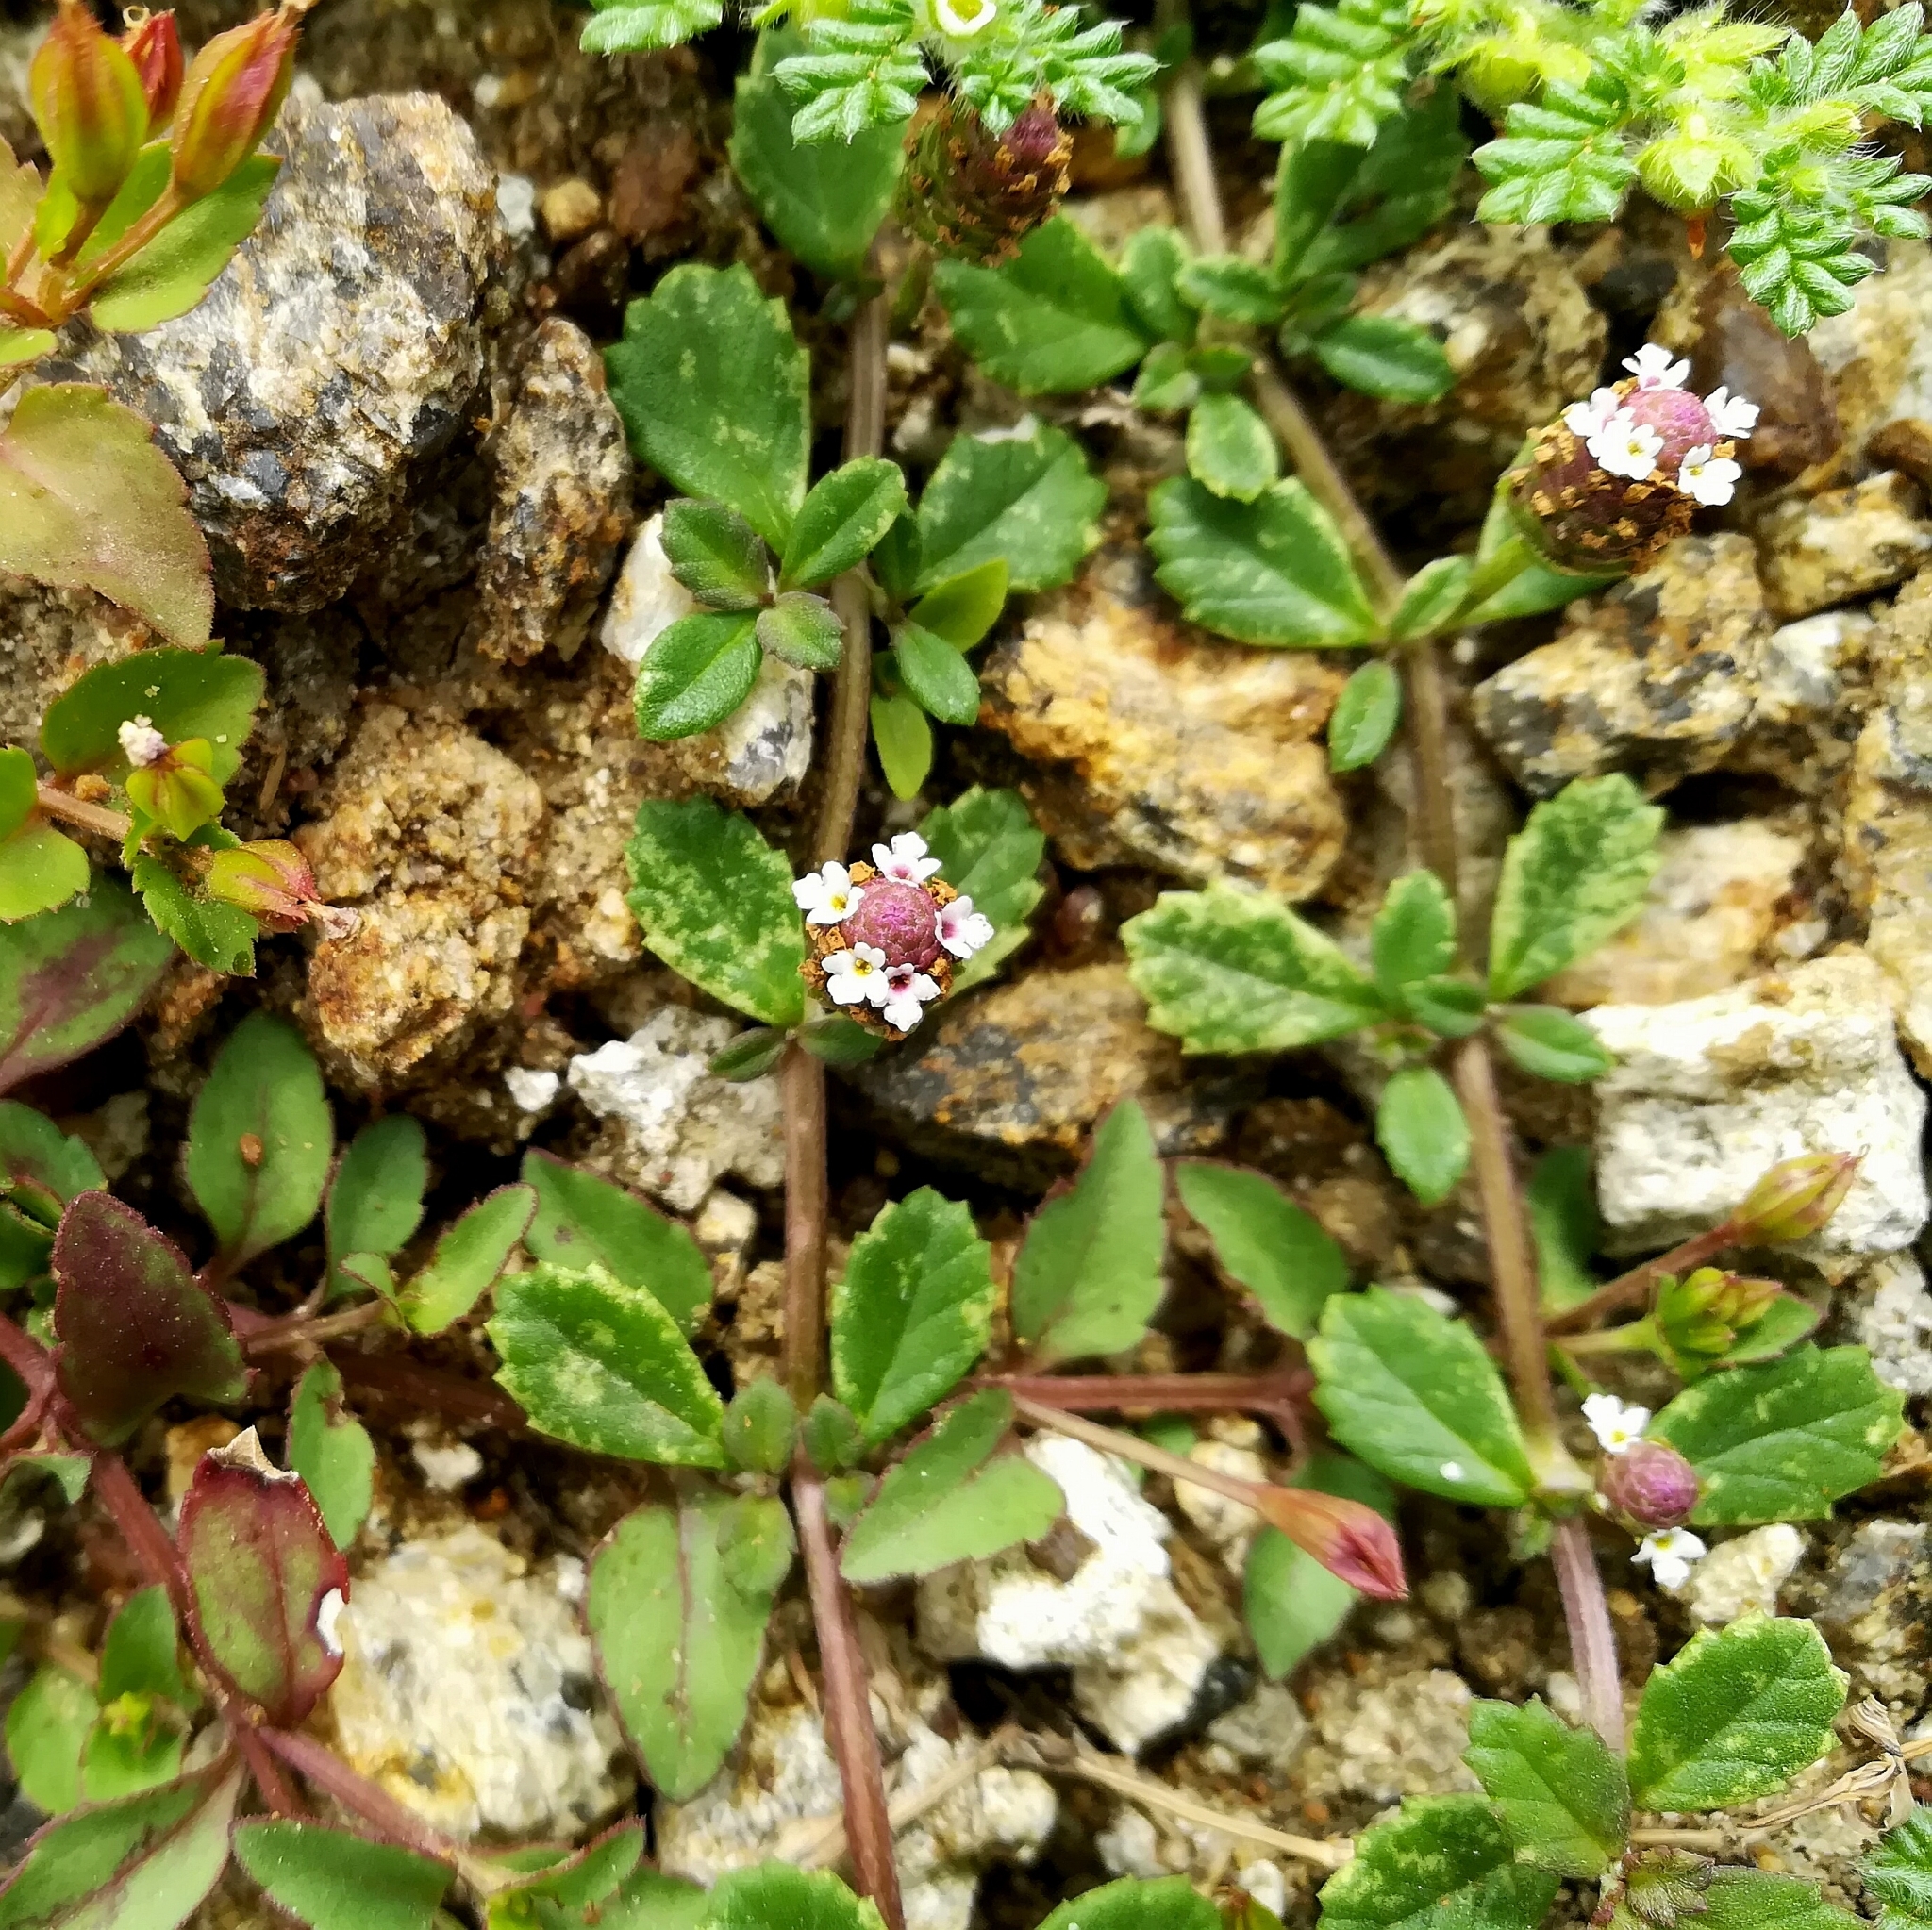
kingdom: Plantae
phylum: Tracheophyta
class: Magnoliopsida
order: Lamiales
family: Verbenaceae
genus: Phyla
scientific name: Phyla nodiflora
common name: Frogfruit
